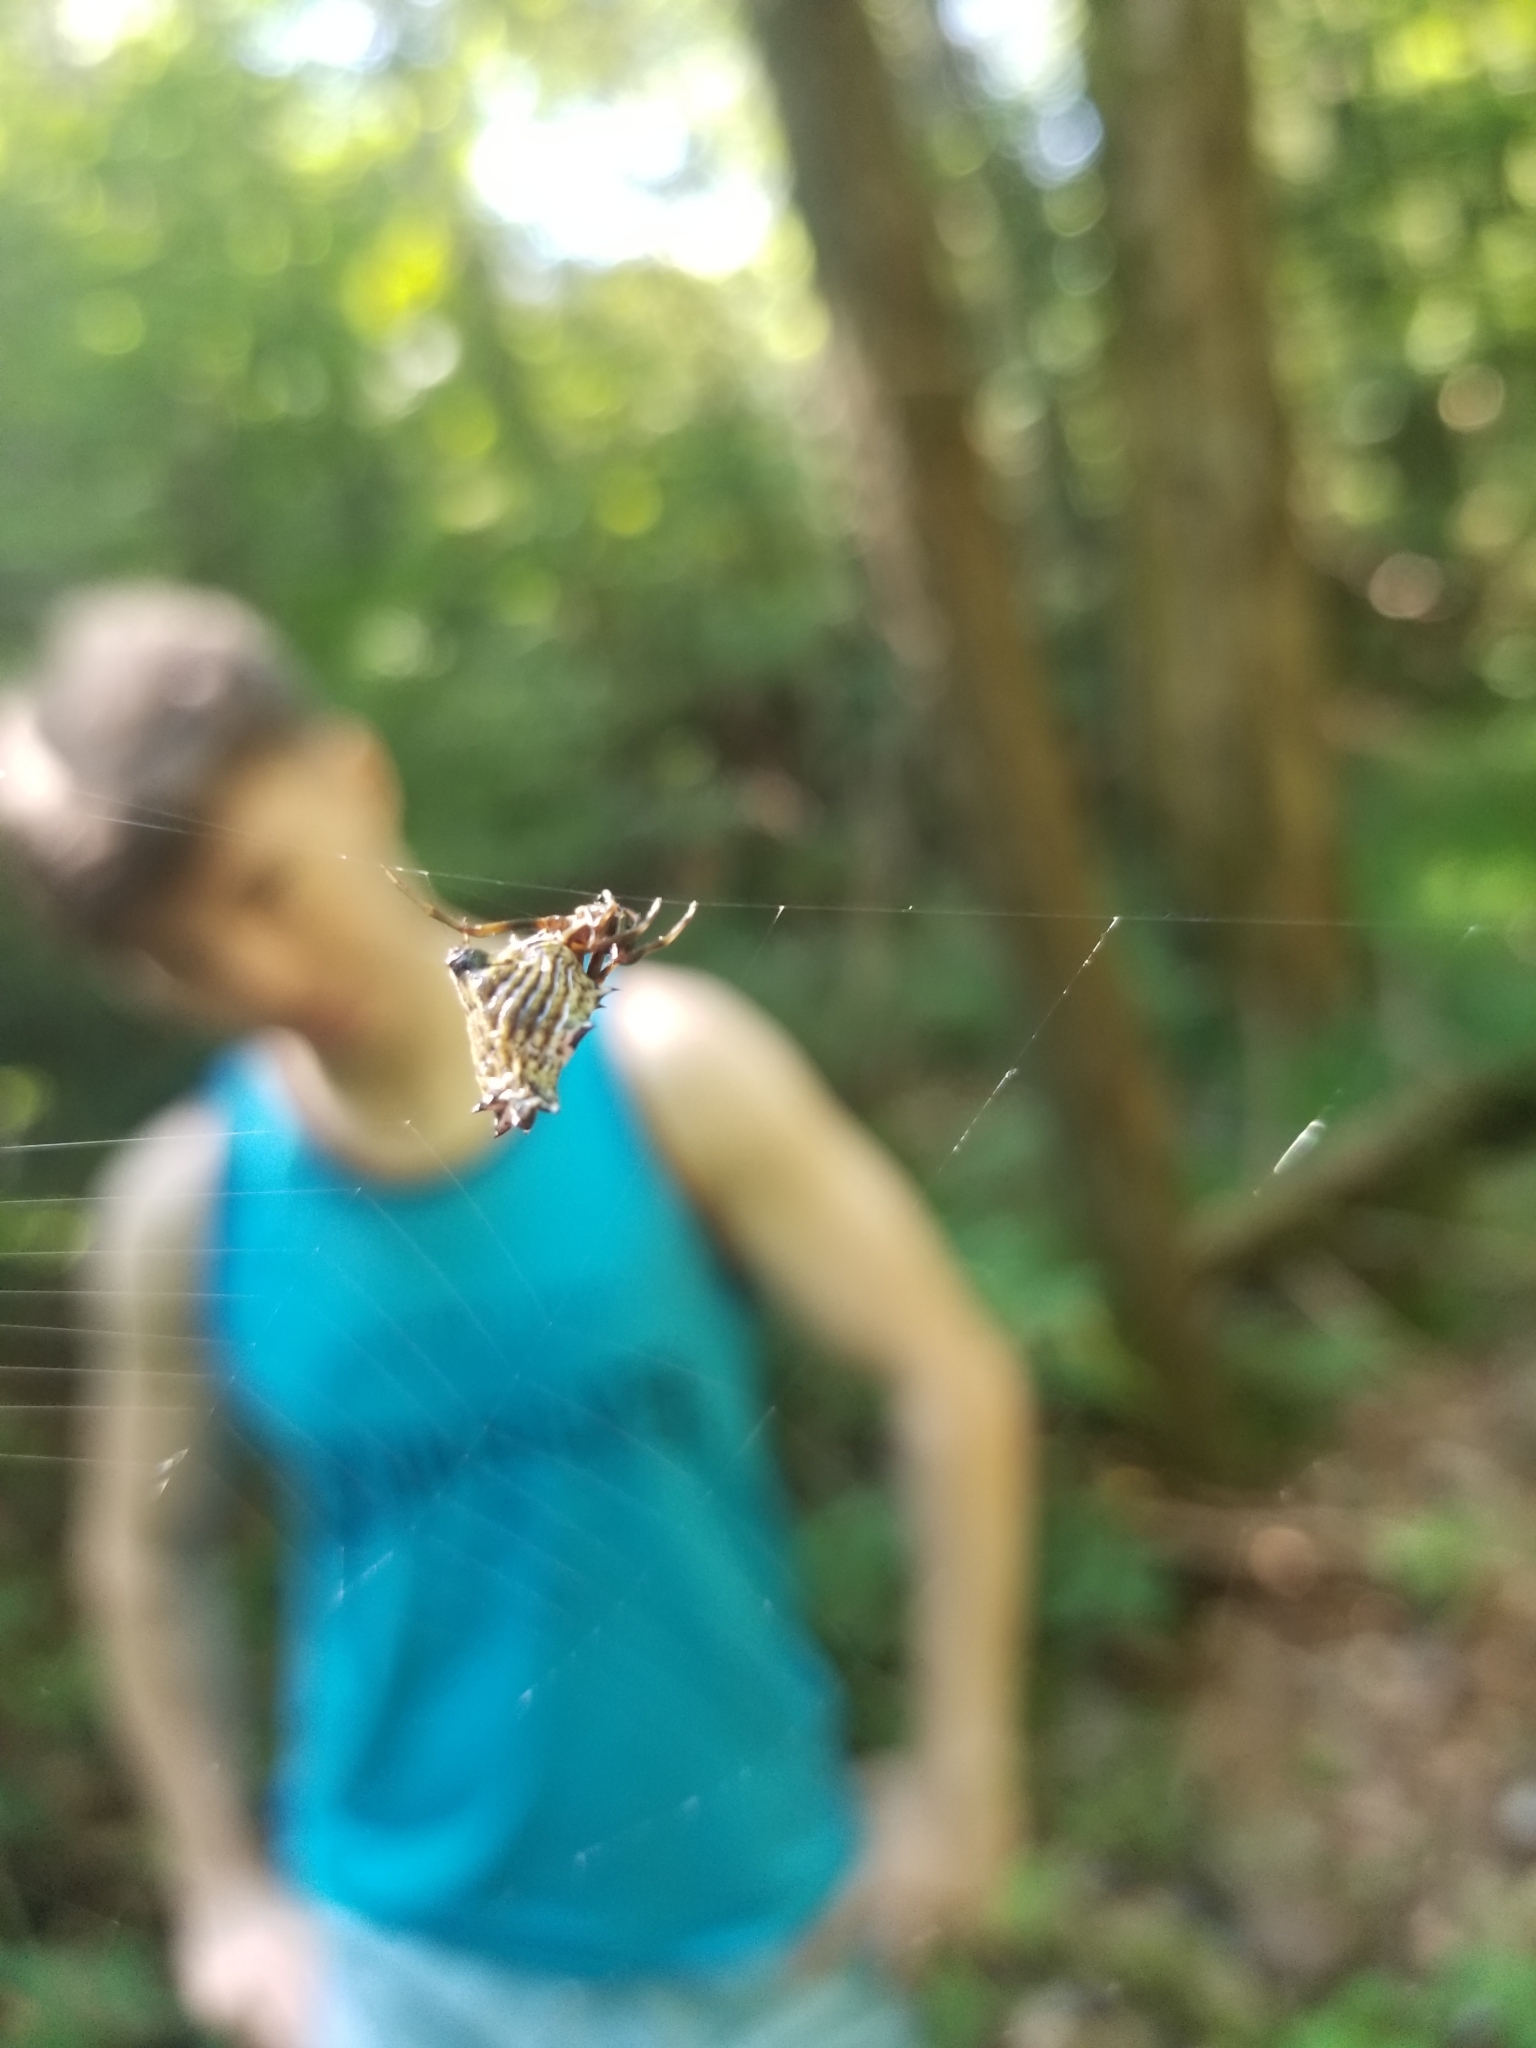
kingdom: Animalia
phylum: Arthropoda
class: Arachnida
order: Araneae
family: Araneidae
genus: Micrathena
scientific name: Micrathena gracilis
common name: Orb weavers
